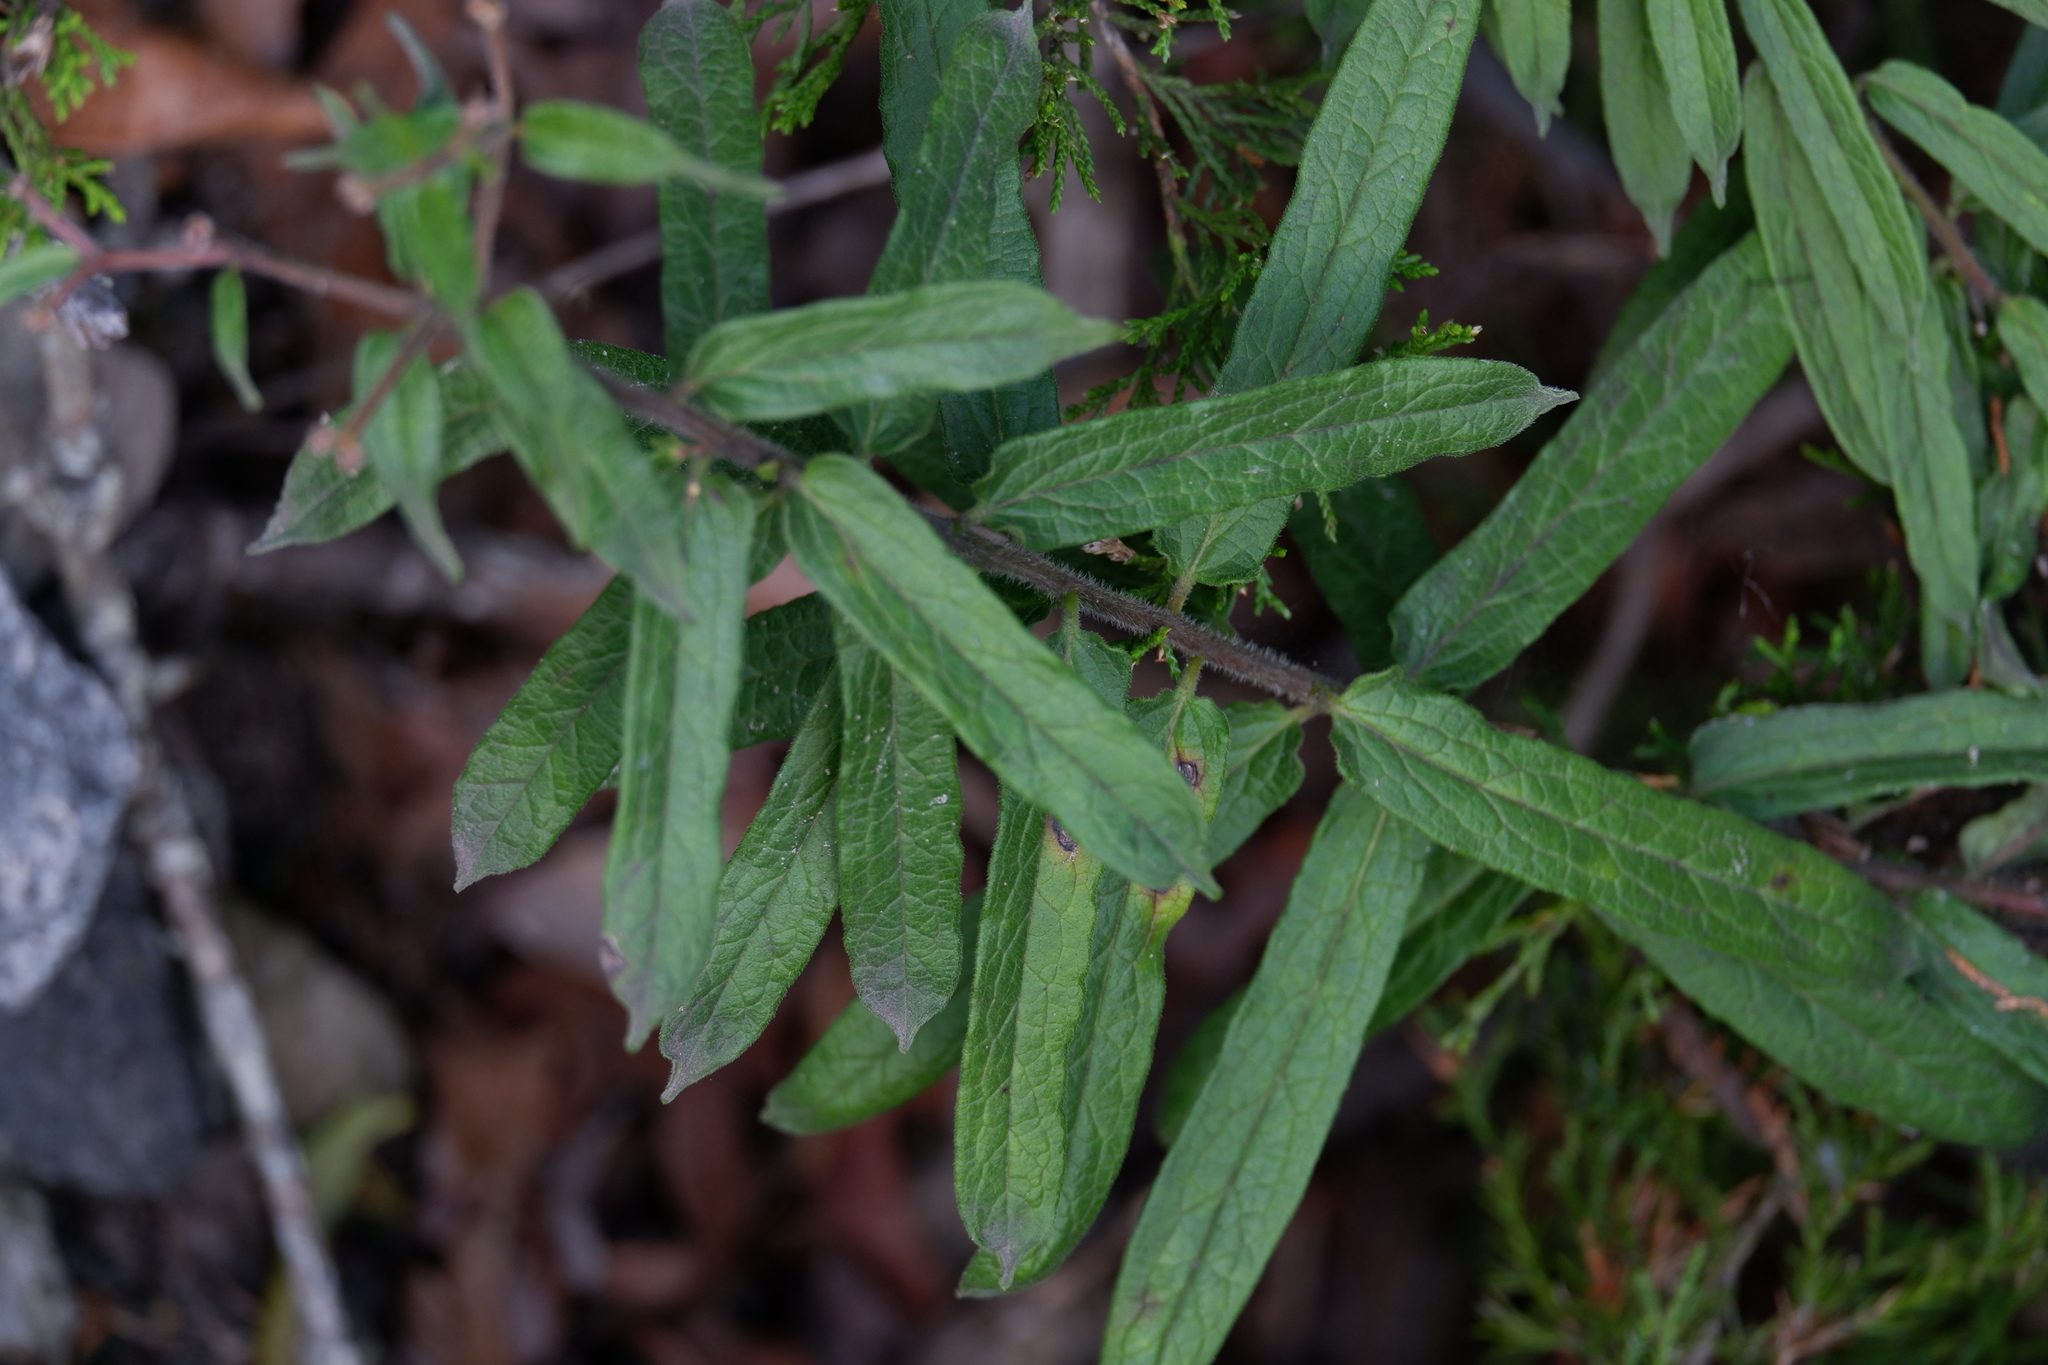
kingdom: Plantae
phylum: Tracheophyta
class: Magnoliopsida
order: Gentianales
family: Apocynaceae
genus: Asclepias
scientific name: Asclepias tuberosa
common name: Butterfly milkweed
